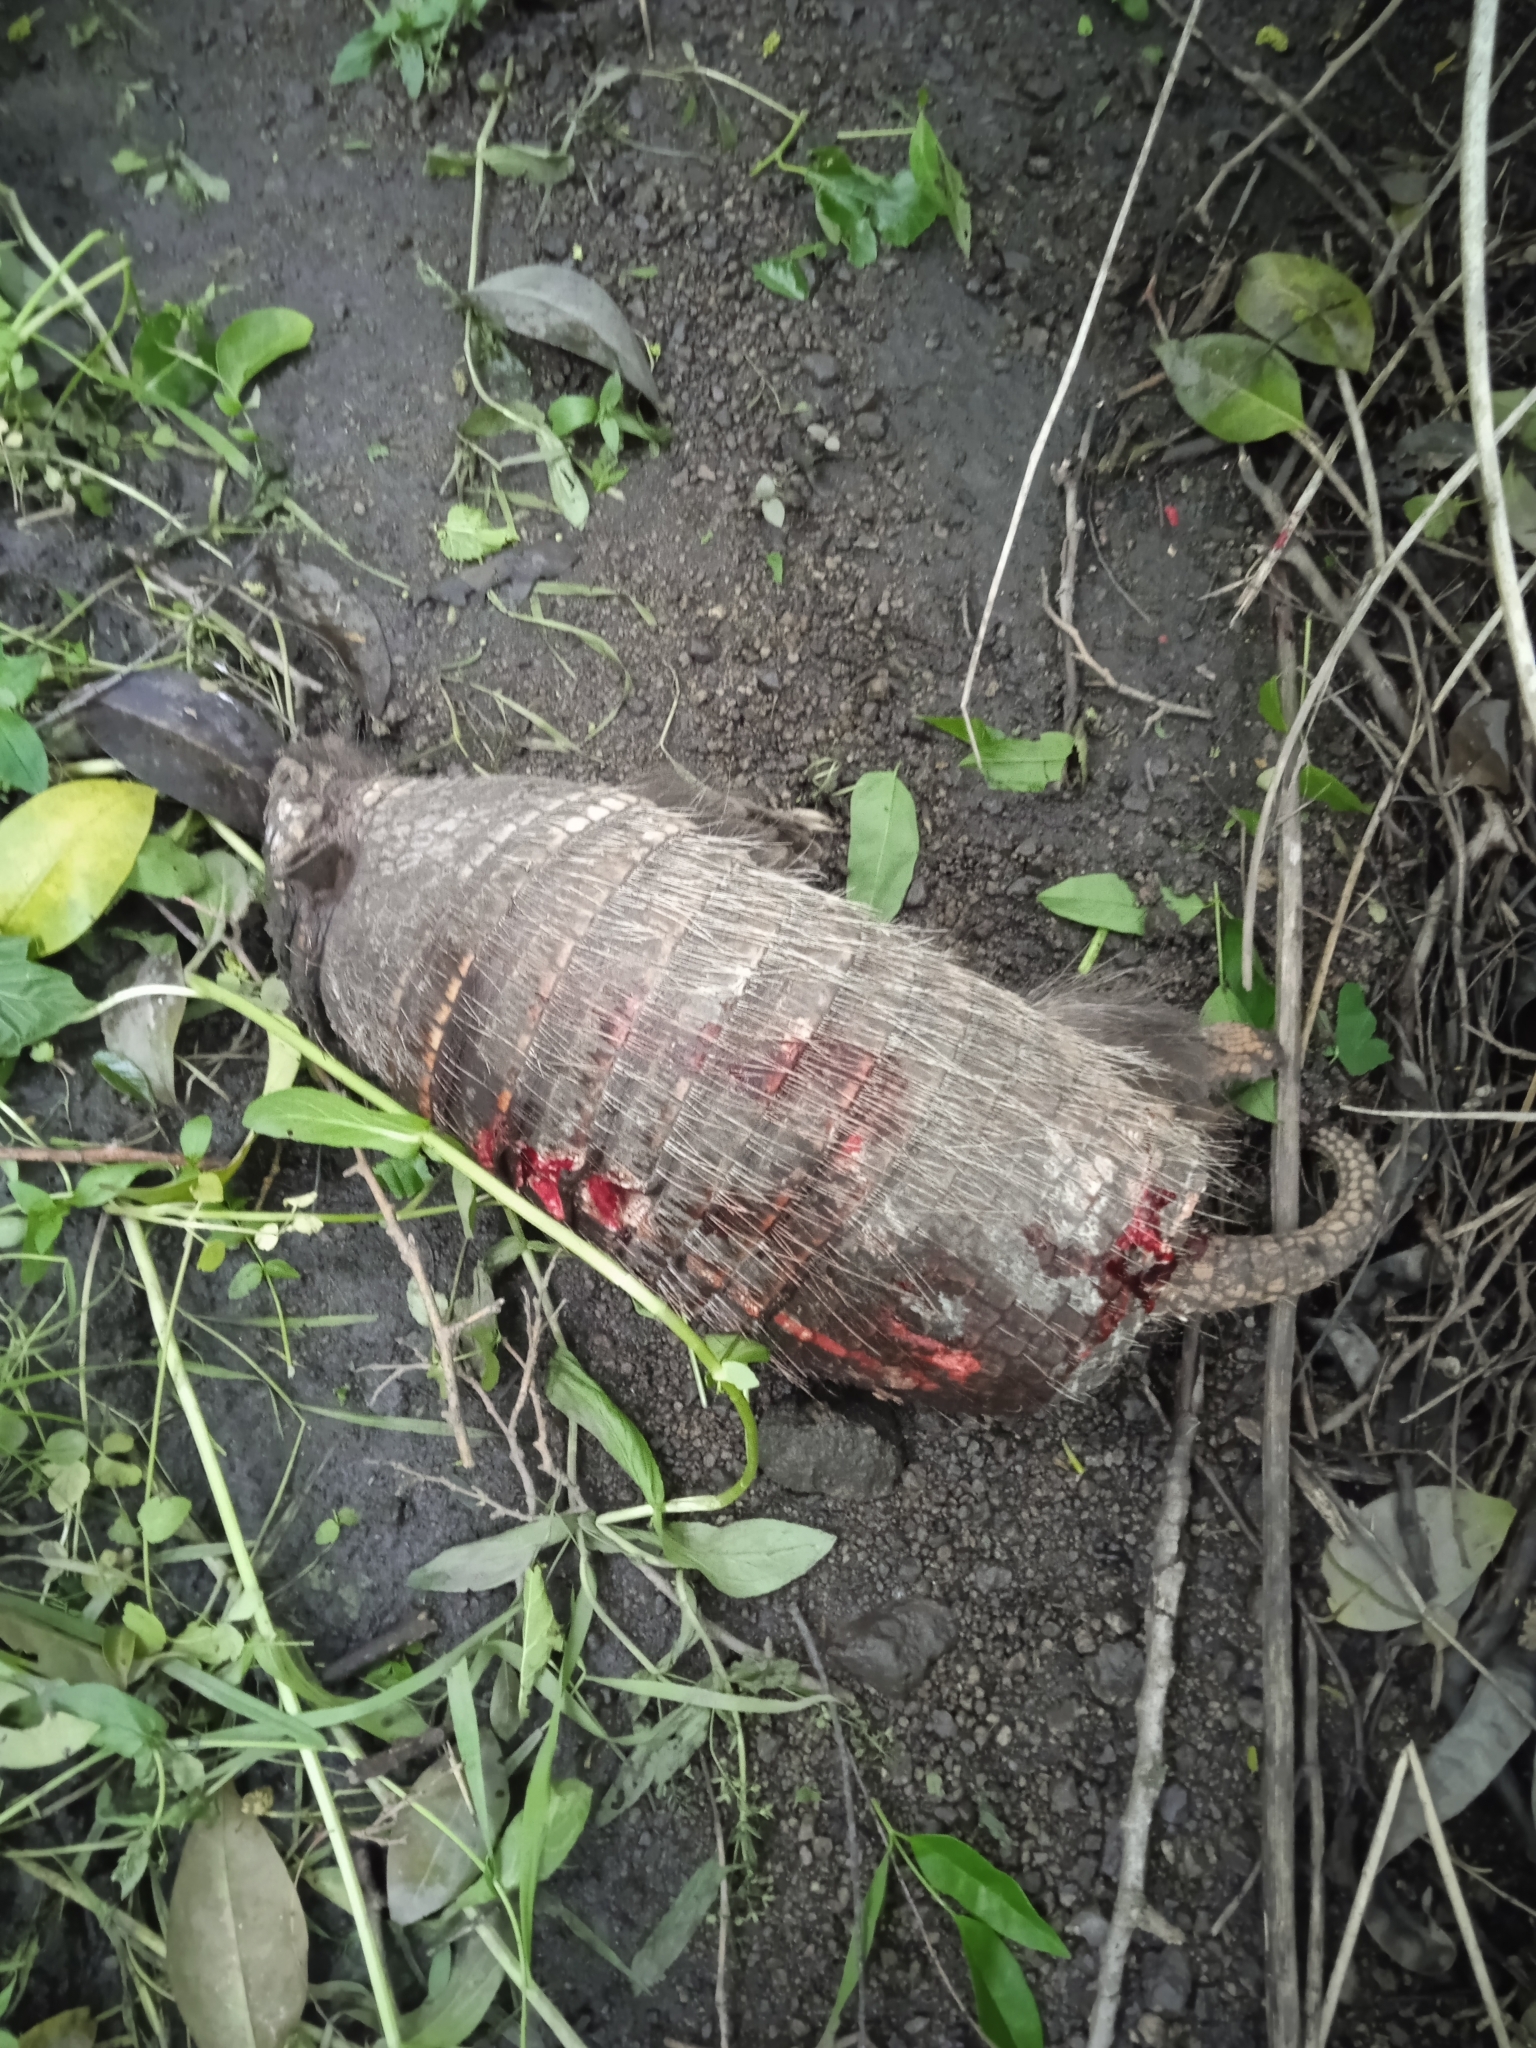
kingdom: Animalia
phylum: Chordata
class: Mammalia
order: Cingulata
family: Dasypodidae
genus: Euphractus
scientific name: Euphractus sexcinctus
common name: Six-banded armadillo
